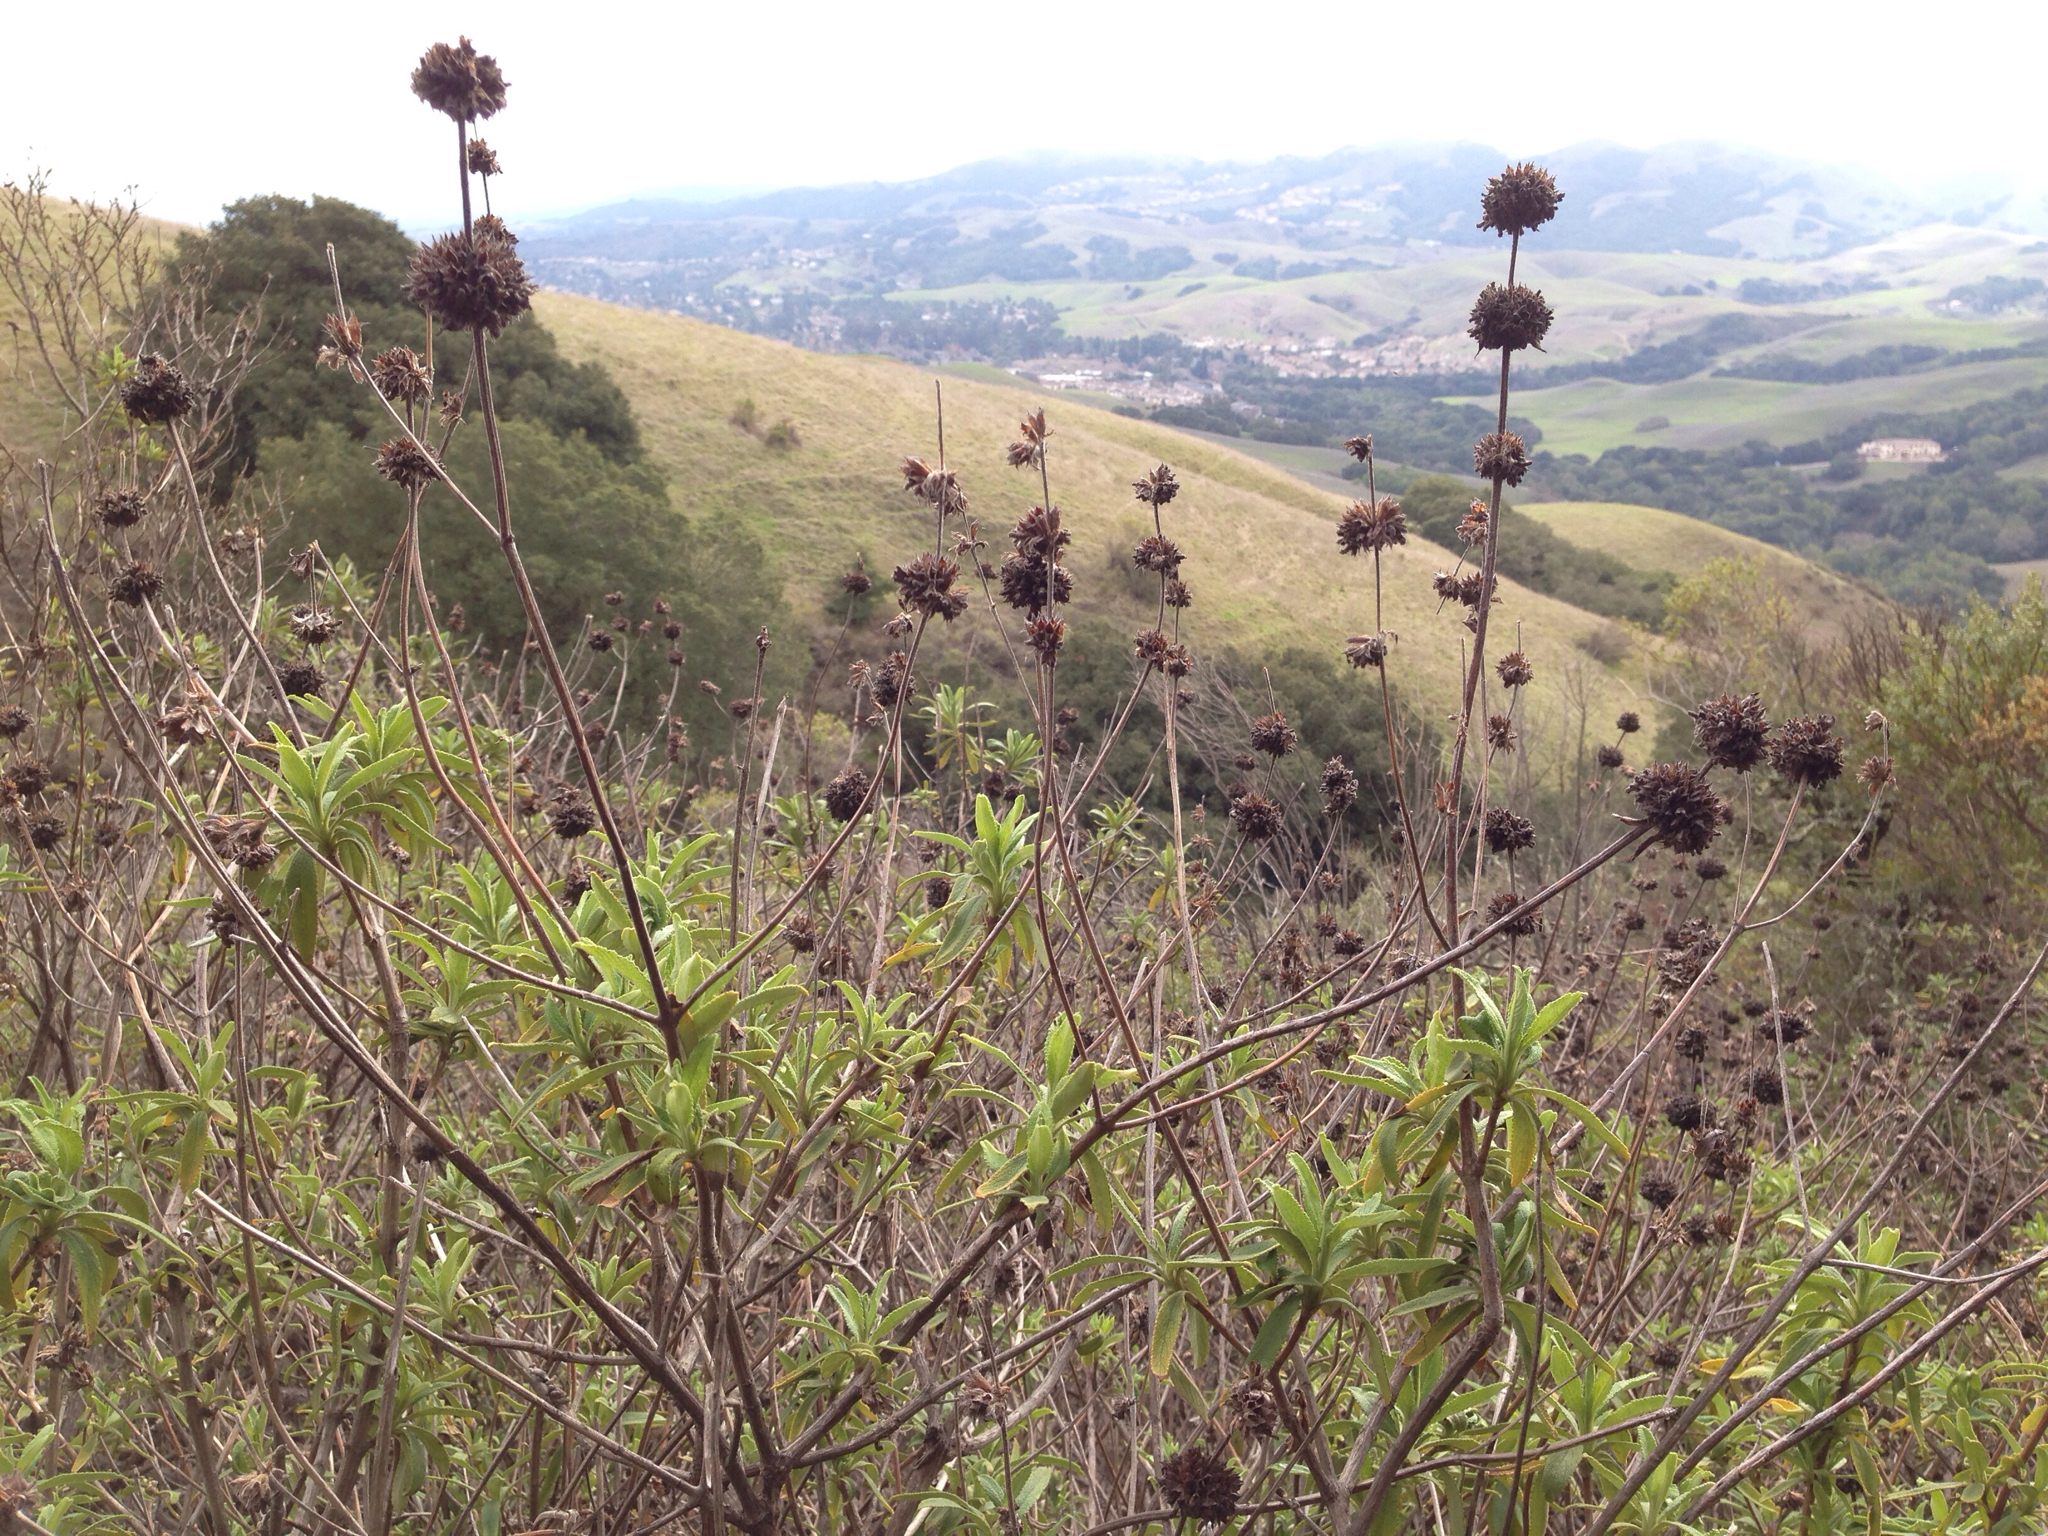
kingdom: Plantae
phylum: Tracheophyta
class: Magnoliopsida
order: Lamiales
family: Lamiaceae
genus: Salvia
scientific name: Salvia mellifera
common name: Black sage
